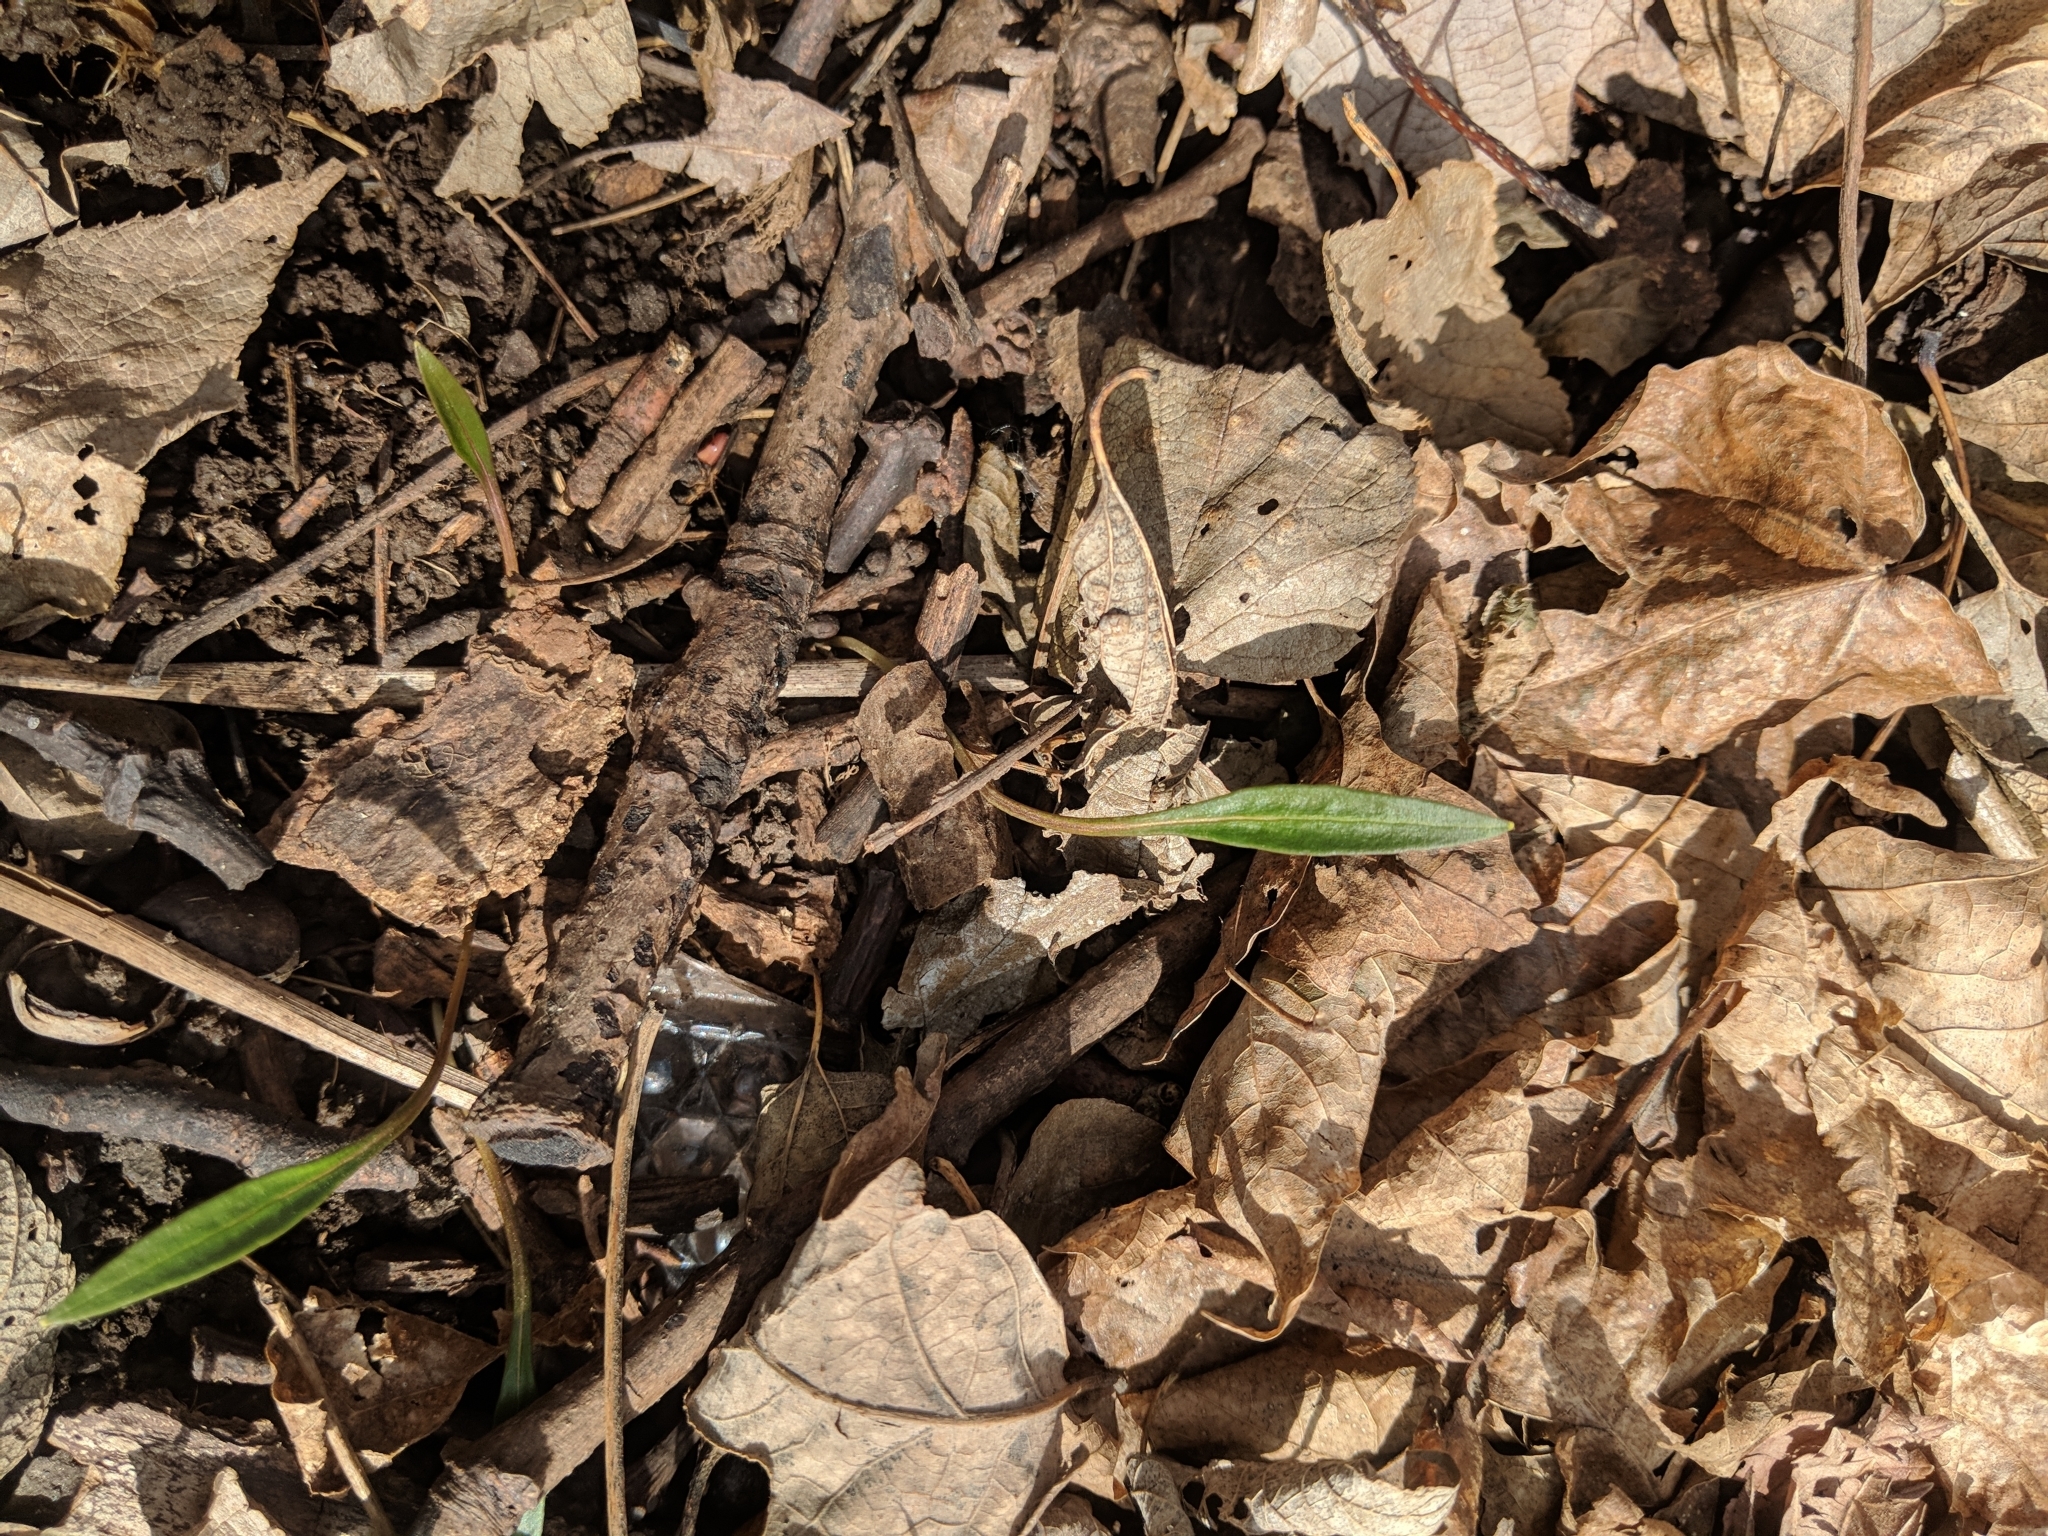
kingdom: Plantae
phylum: Tracheophyta
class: Magnoliopsida
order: Caryophyllales
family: Montiaceae
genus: Claytonia
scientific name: Claytonia virginica
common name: Virginia springbeauty
